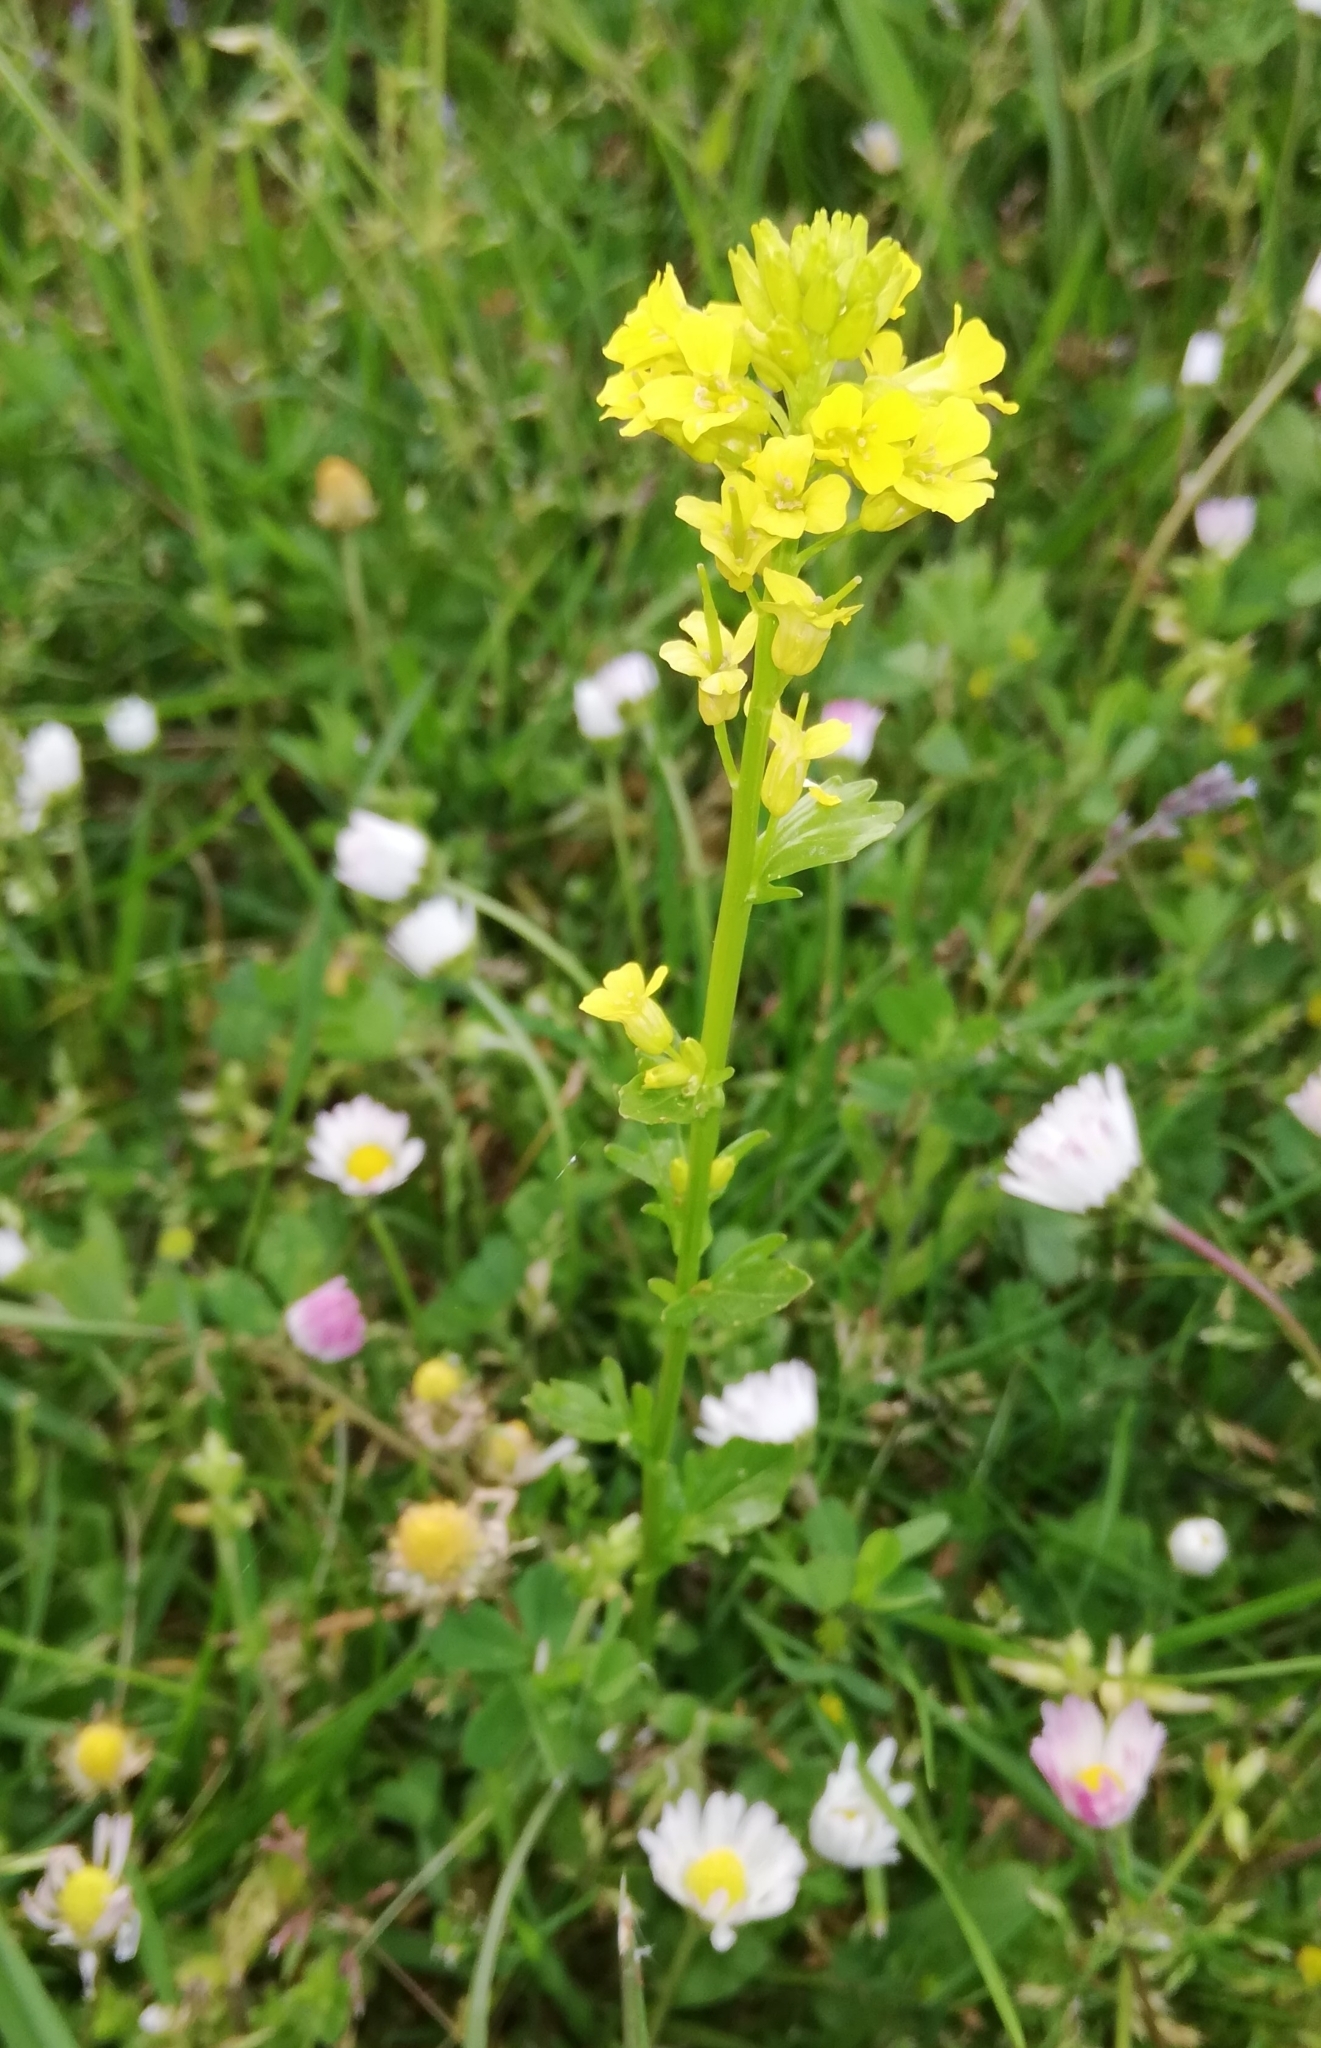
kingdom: Plantae
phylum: Tracheophyta
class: Magnoliopsida
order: Brassicales
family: Brassicaceae
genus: Barbarea
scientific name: Barbarea vulgaris
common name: Cressy-greens
